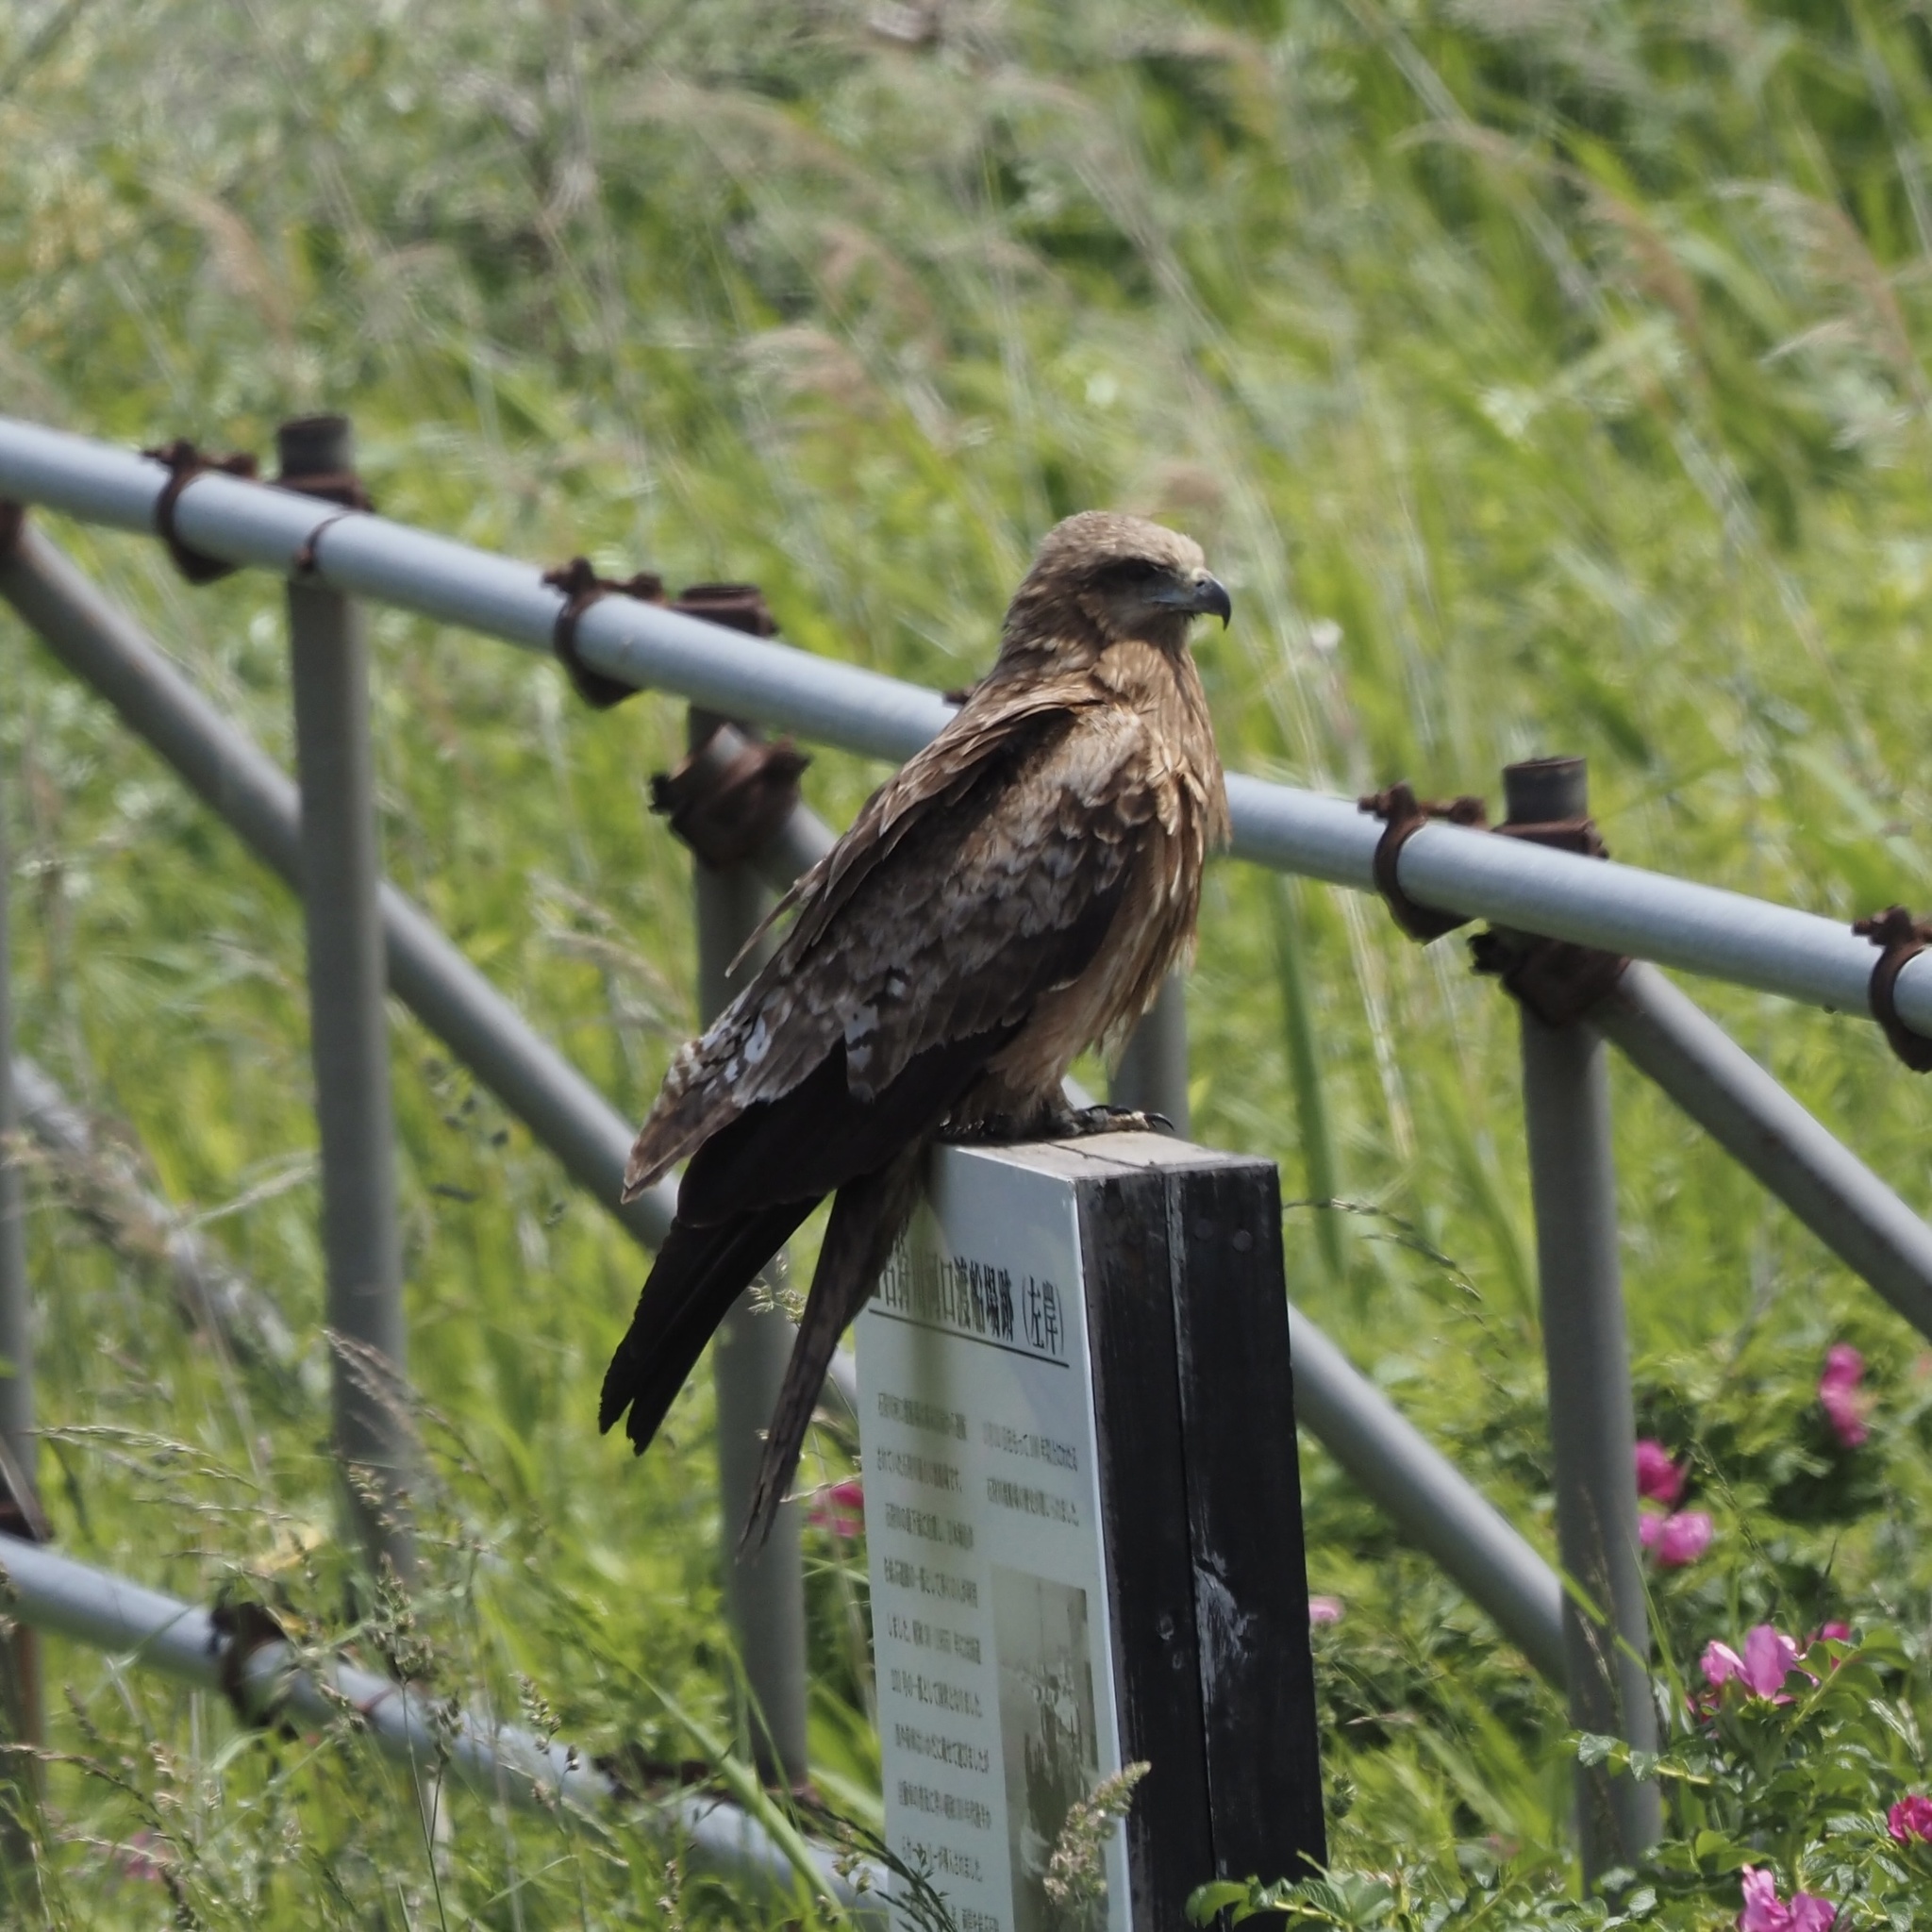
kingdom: Animalia
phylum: Chordata
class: Aves
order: Accipitriformes
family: Accipitridae
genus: Milvus
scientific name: Milvus migrans
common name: Black kite
